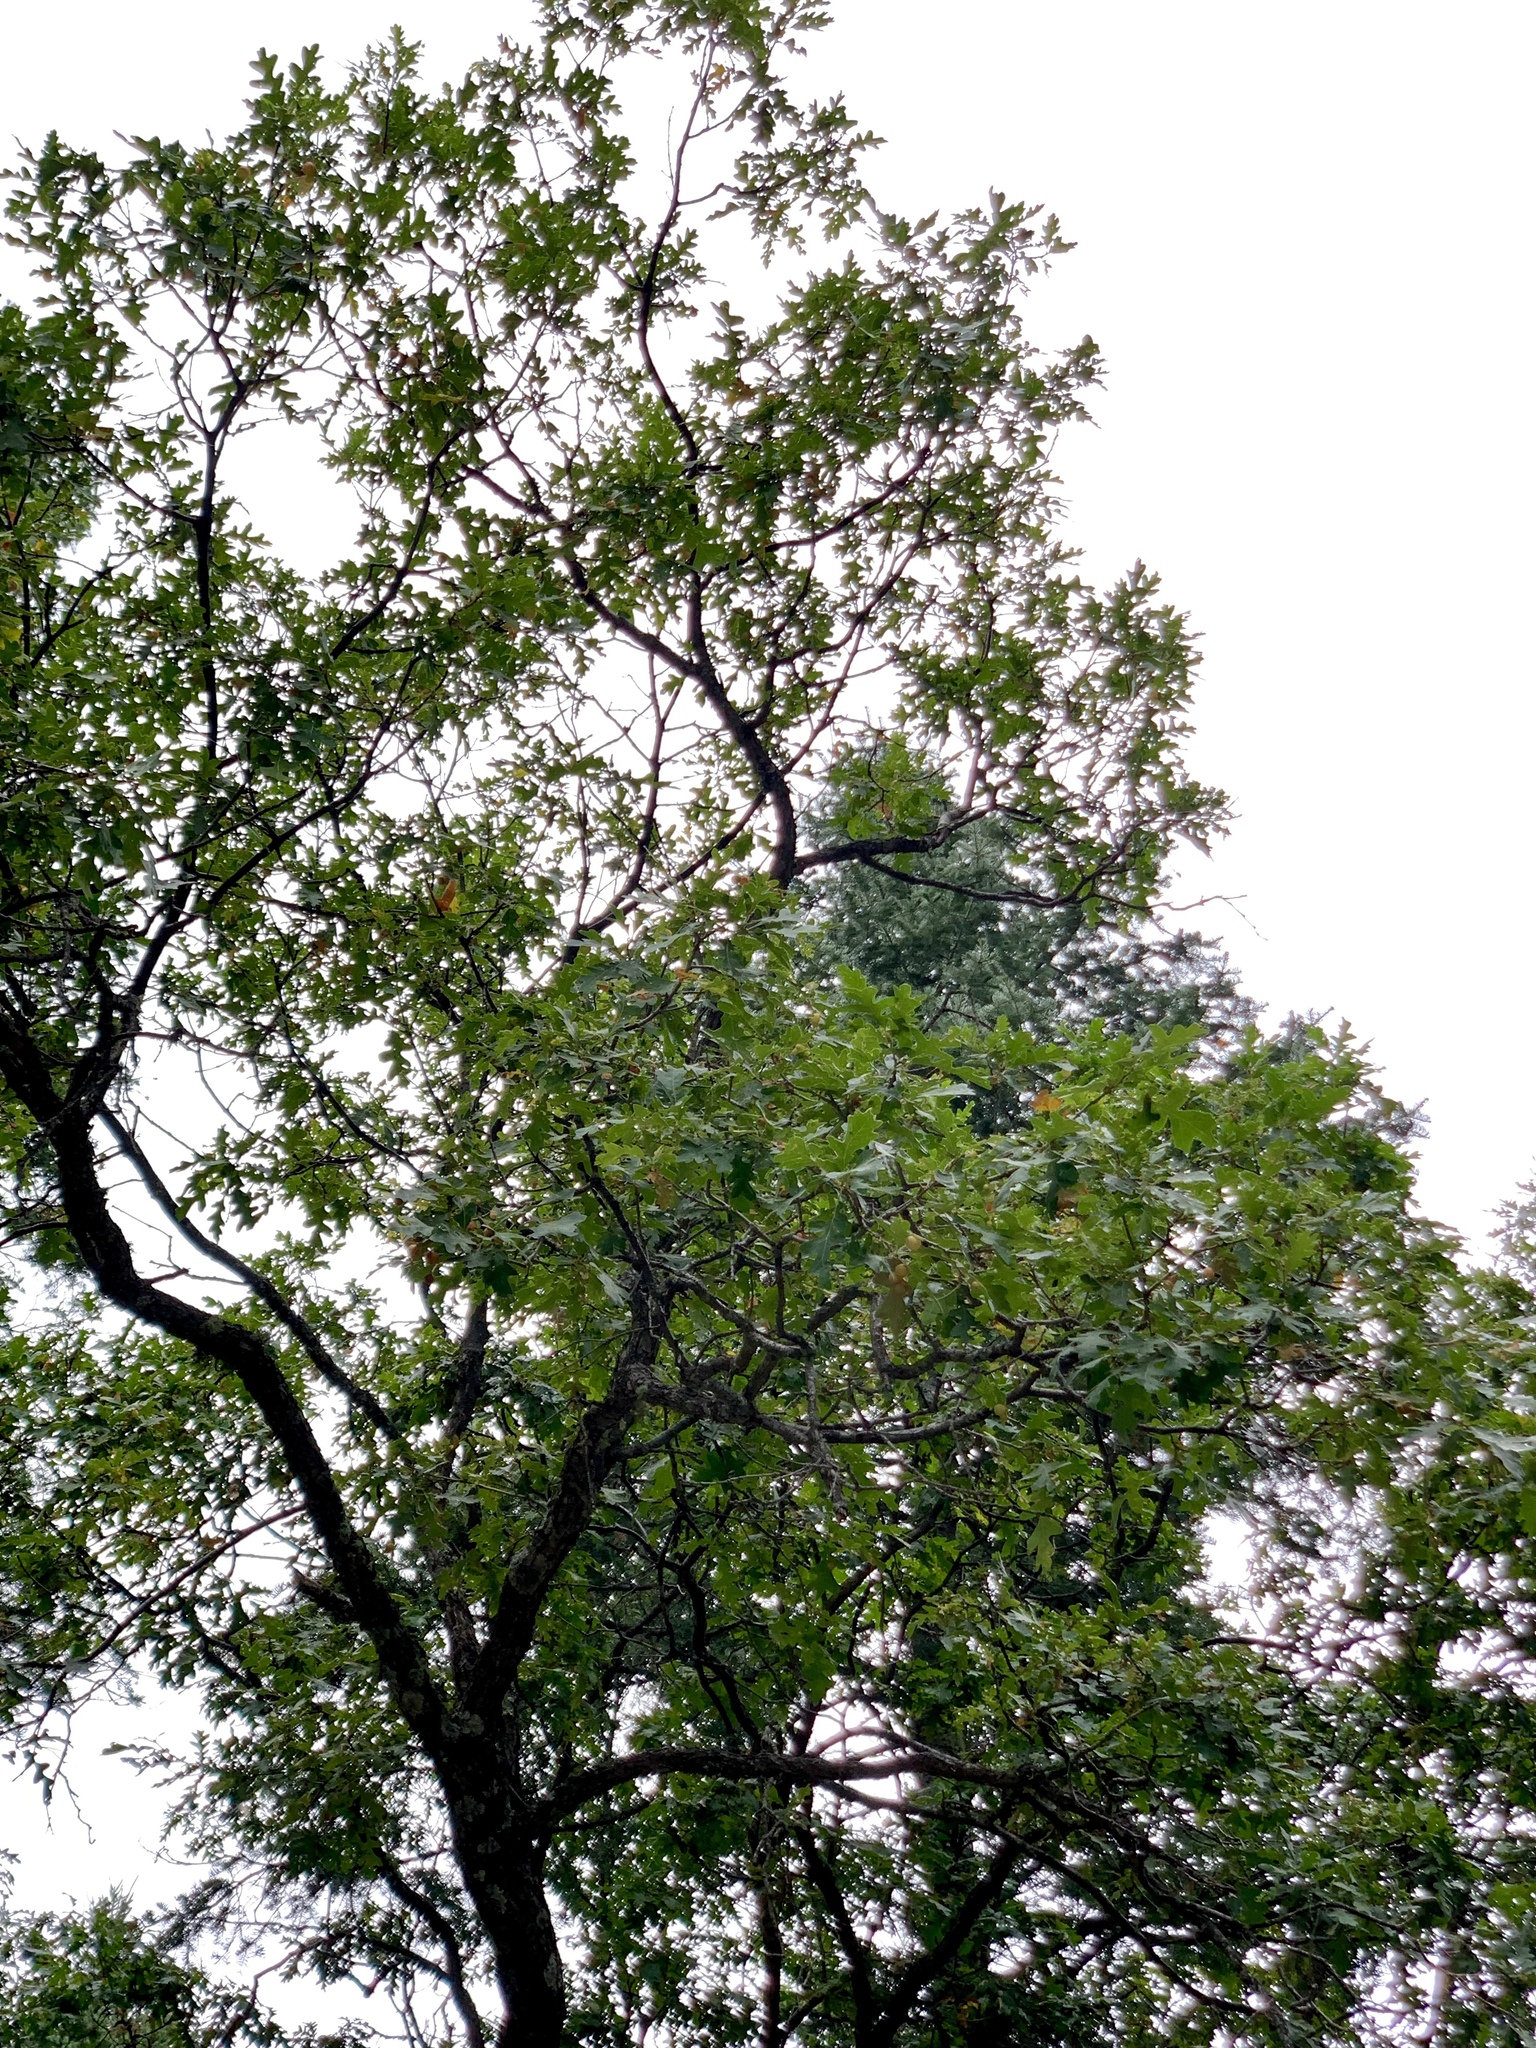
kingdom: Plantae
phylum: Tracheophyta
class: Magnoliopsida
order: Fagales
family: Fagaceae
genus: Quercus
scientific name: Quercus gambelii
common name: Gambel oak
